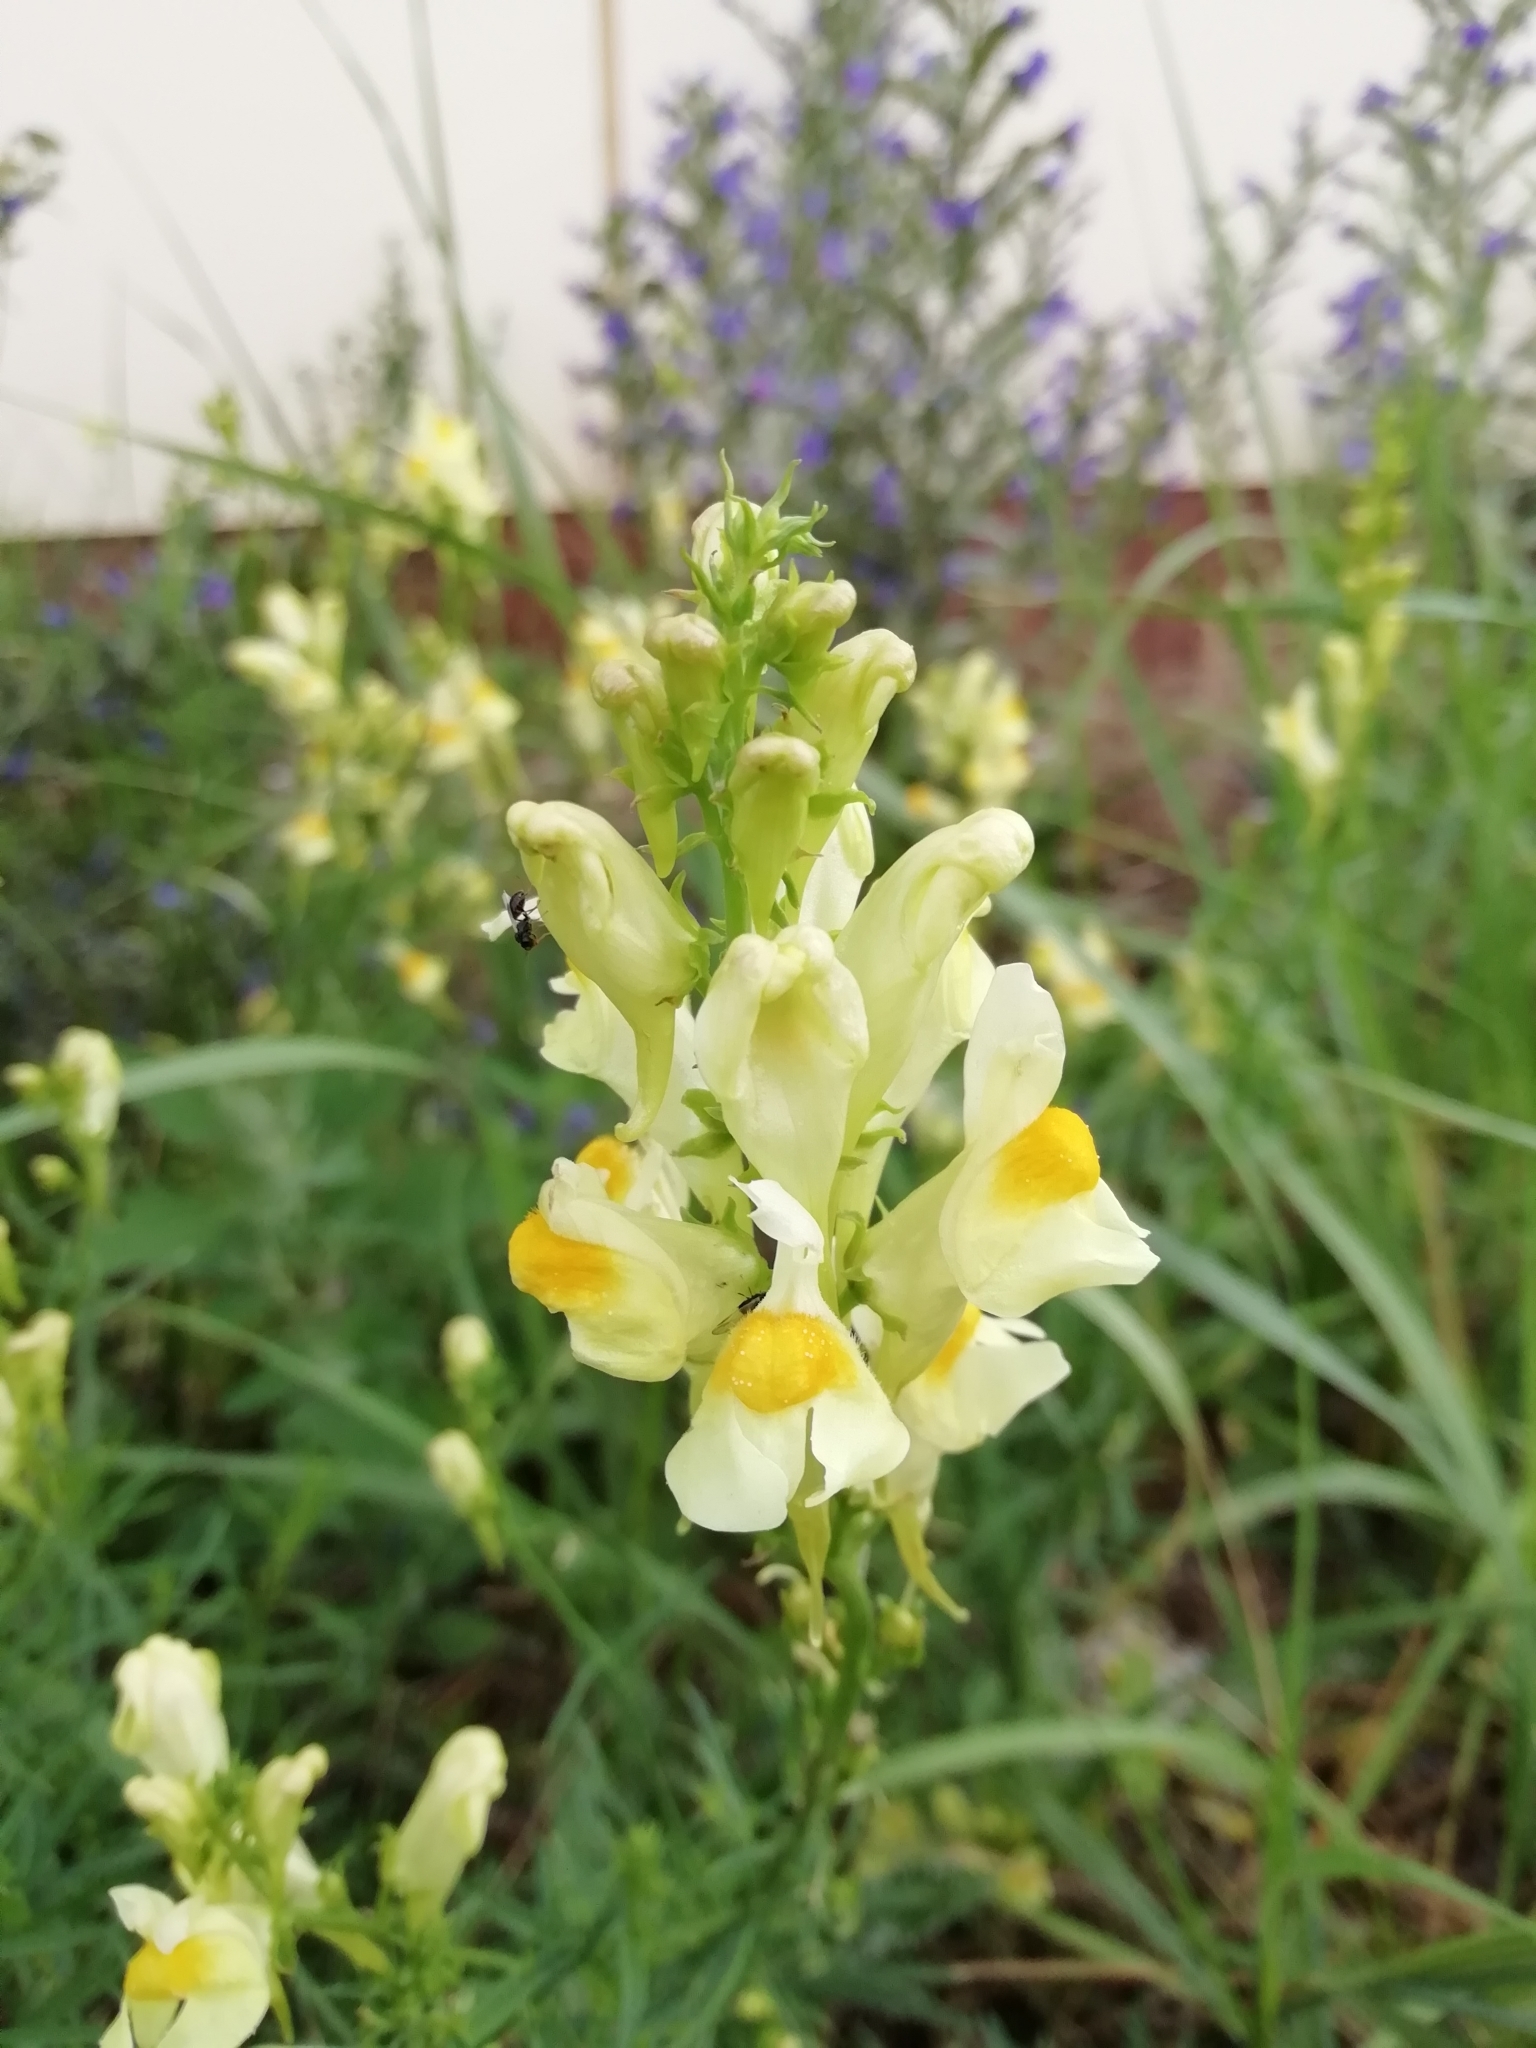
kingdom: Plantae
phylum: Tracheophyta
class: Magnoliopsida
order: Lamiales
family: Plantaginaceae
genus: Linaria
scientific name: Linaria vulgaris
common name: Butter and eggs
